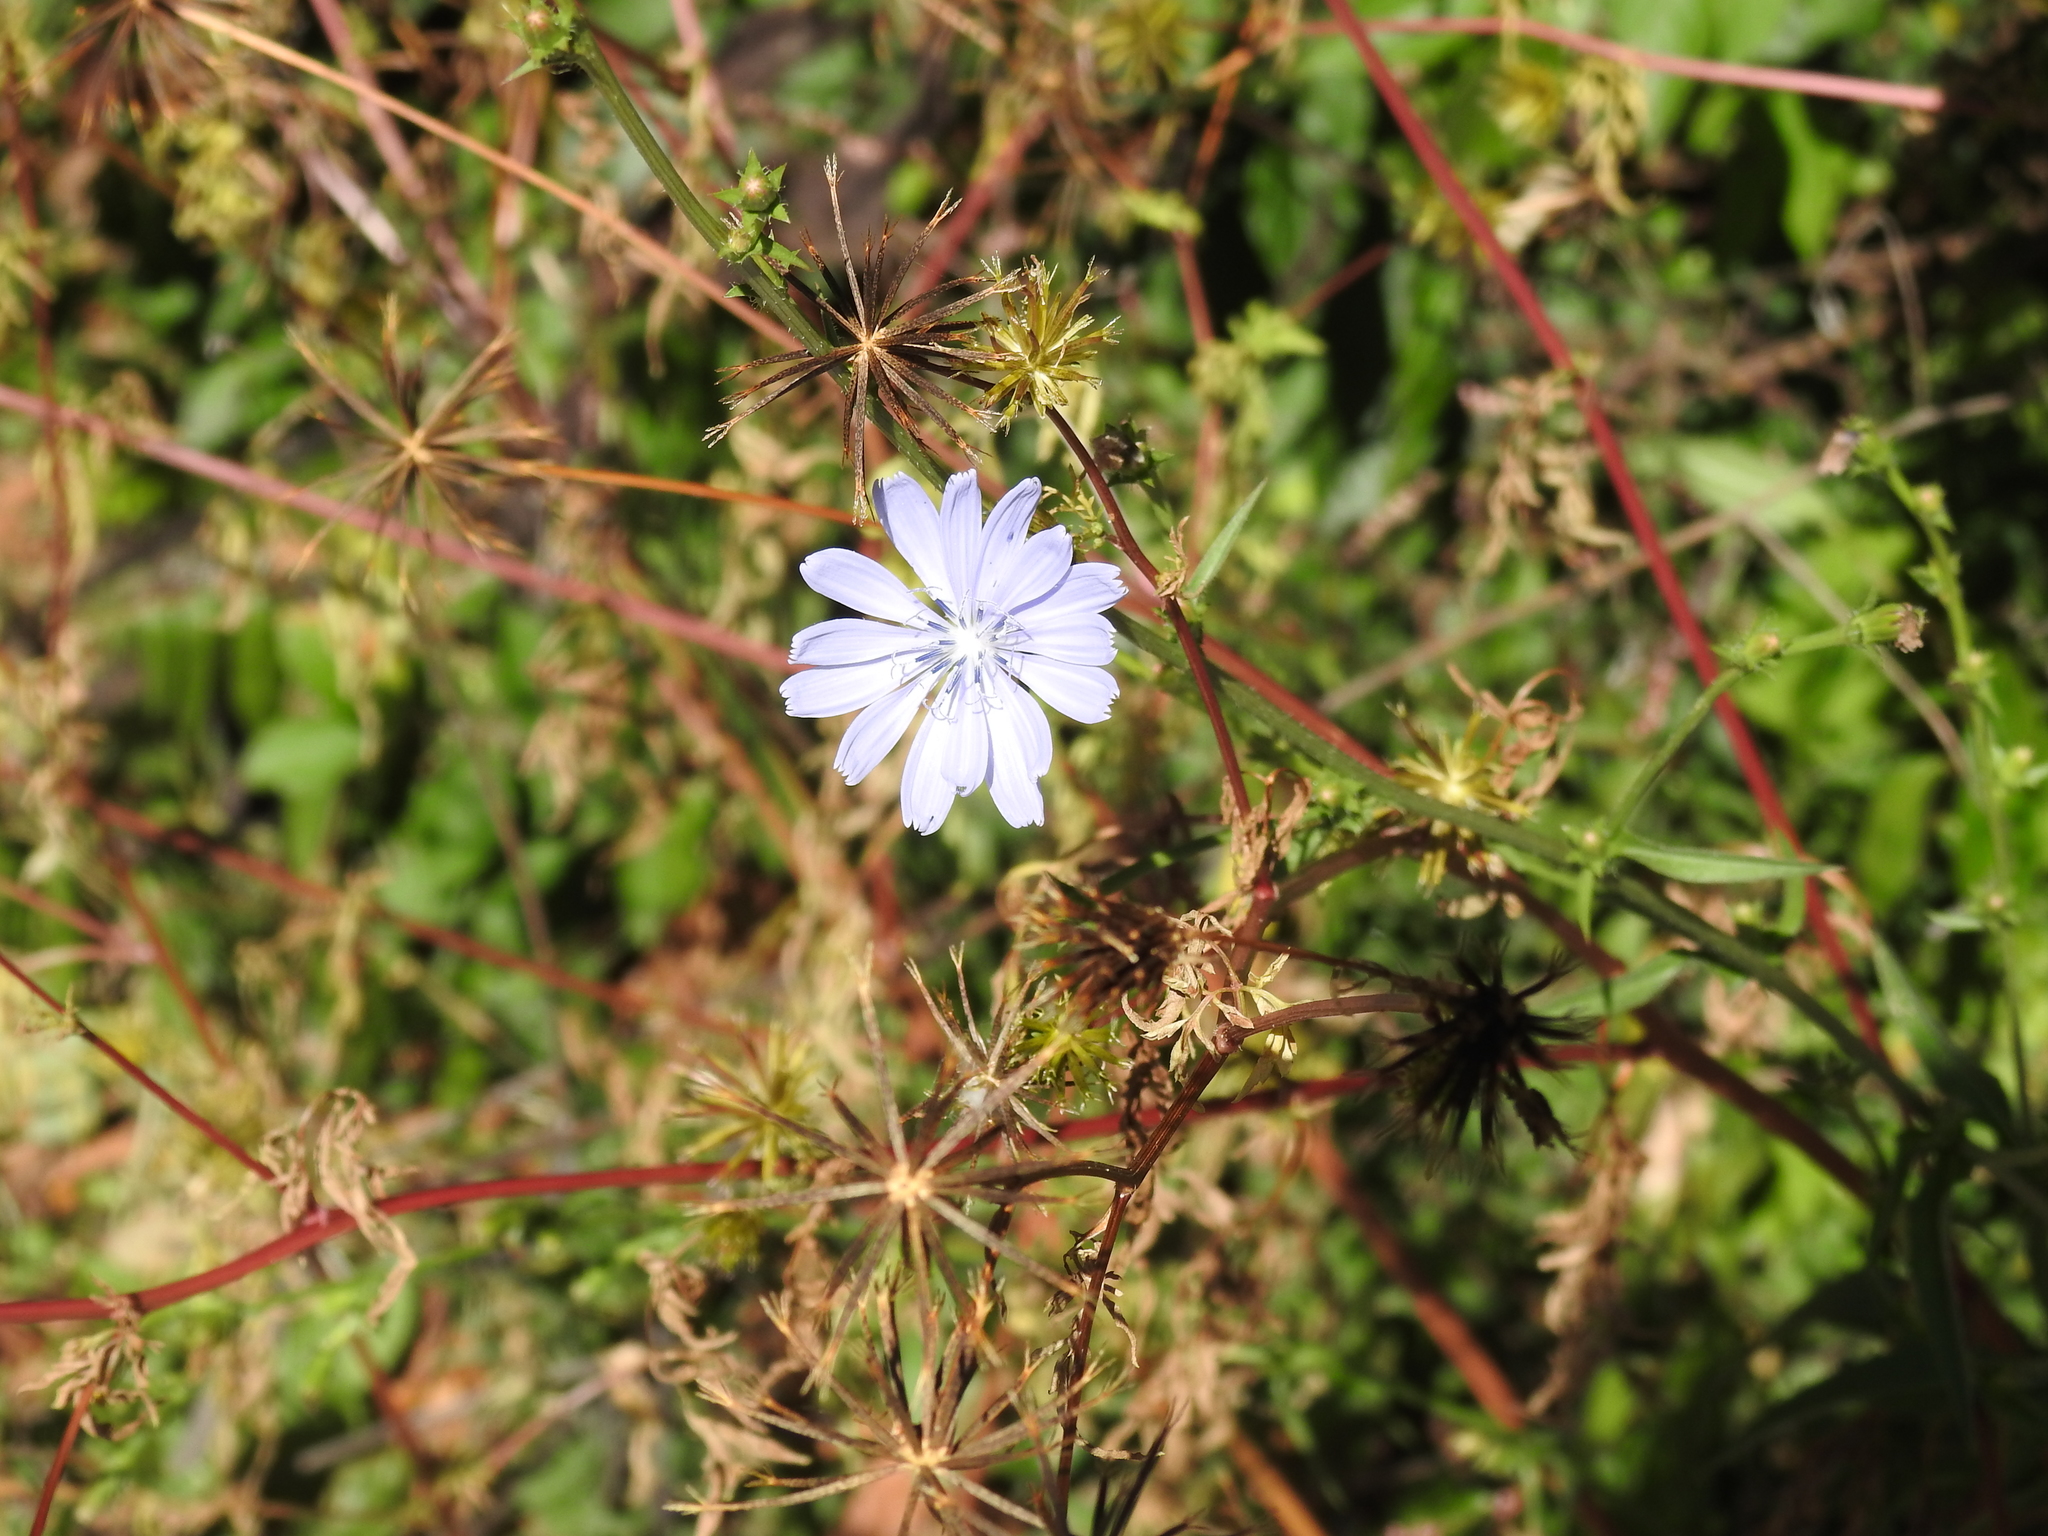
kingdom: Plantae
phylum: Tracheophyta
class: Magnoliopsida
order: Asterales
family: Asteraceae
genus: Cichorium
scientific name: Cichorium intybus
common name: Chicory
